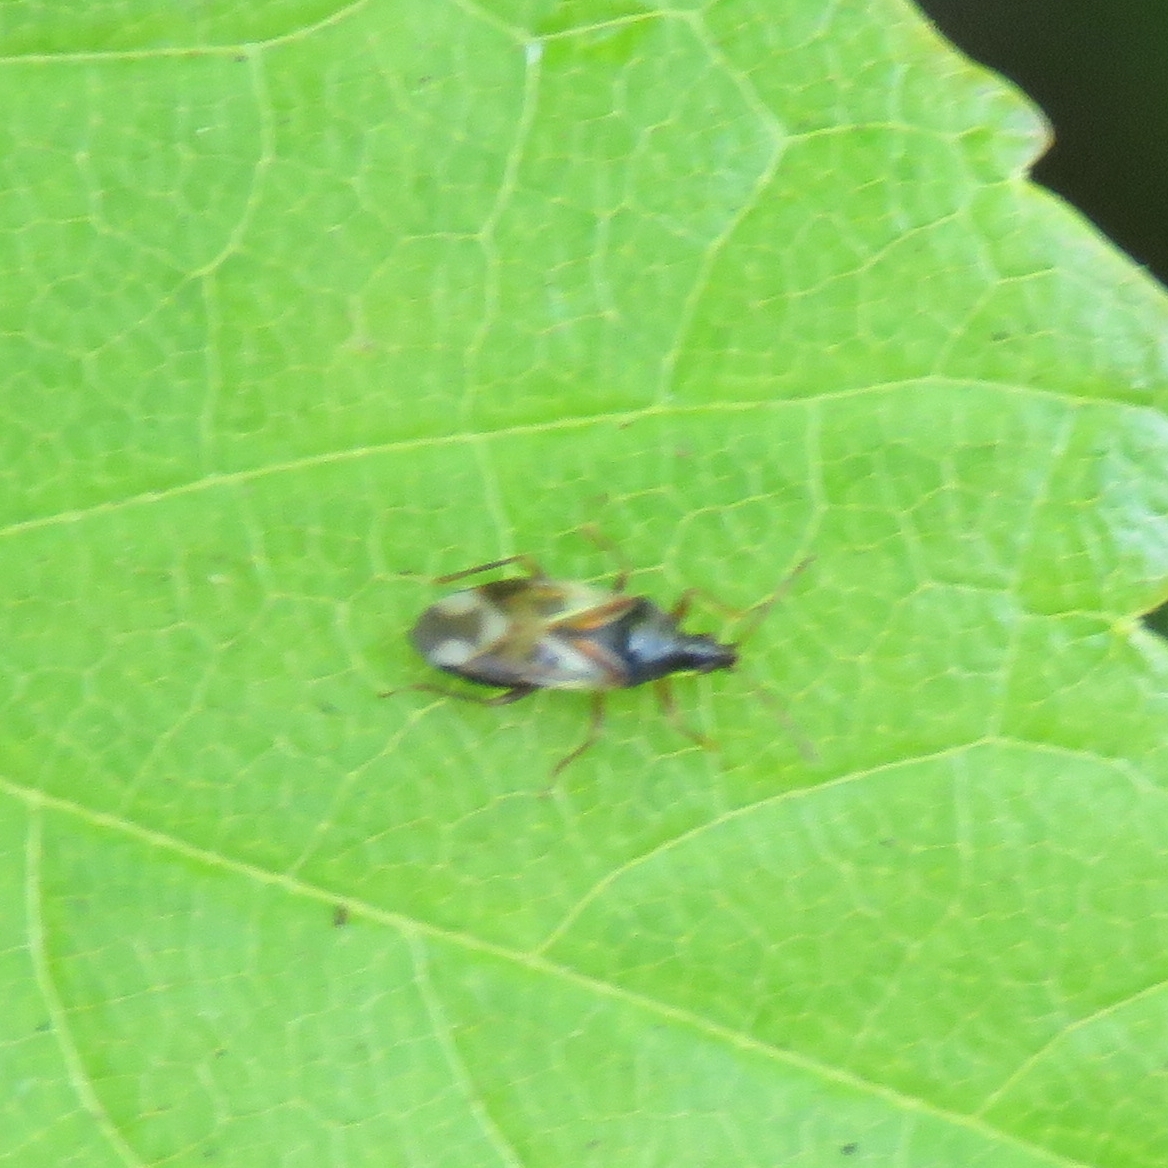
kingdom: Animalia
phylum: Arthropoda
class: Insecta
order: Hemiptera
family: Anthocoridae
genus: Anthocoris
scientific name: Anthocoris nemorum
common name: Minute pirate bug
